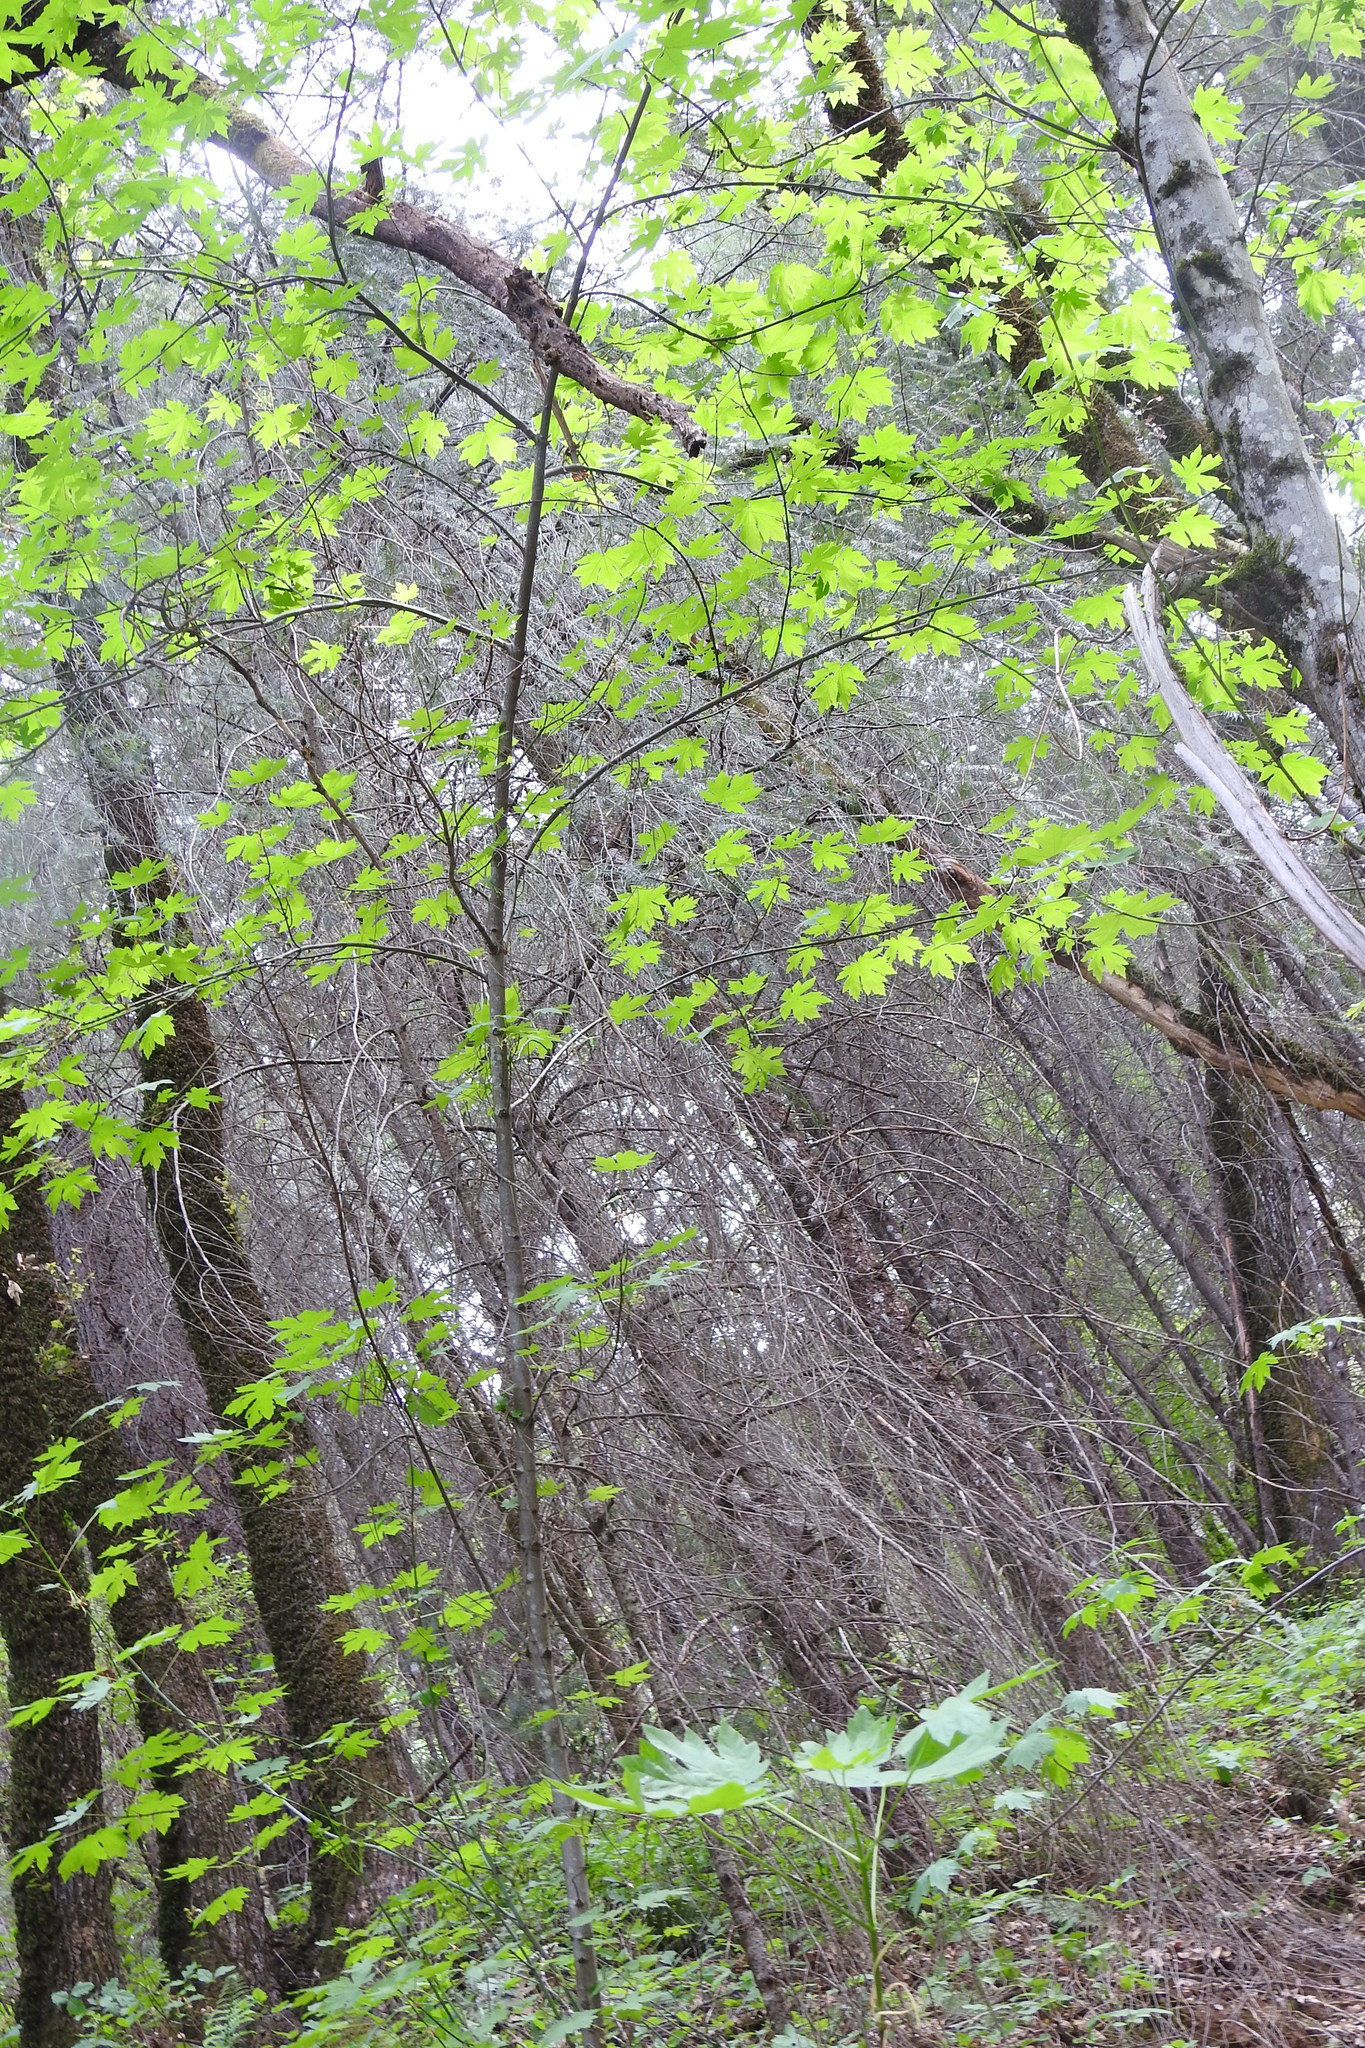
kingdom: Plantae
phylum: Tracheophyta
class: Magnoliopsida
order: Sapindales
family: Sapindaceae
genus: Acer
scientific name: Acer macrophyllum
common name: Oregon maple
